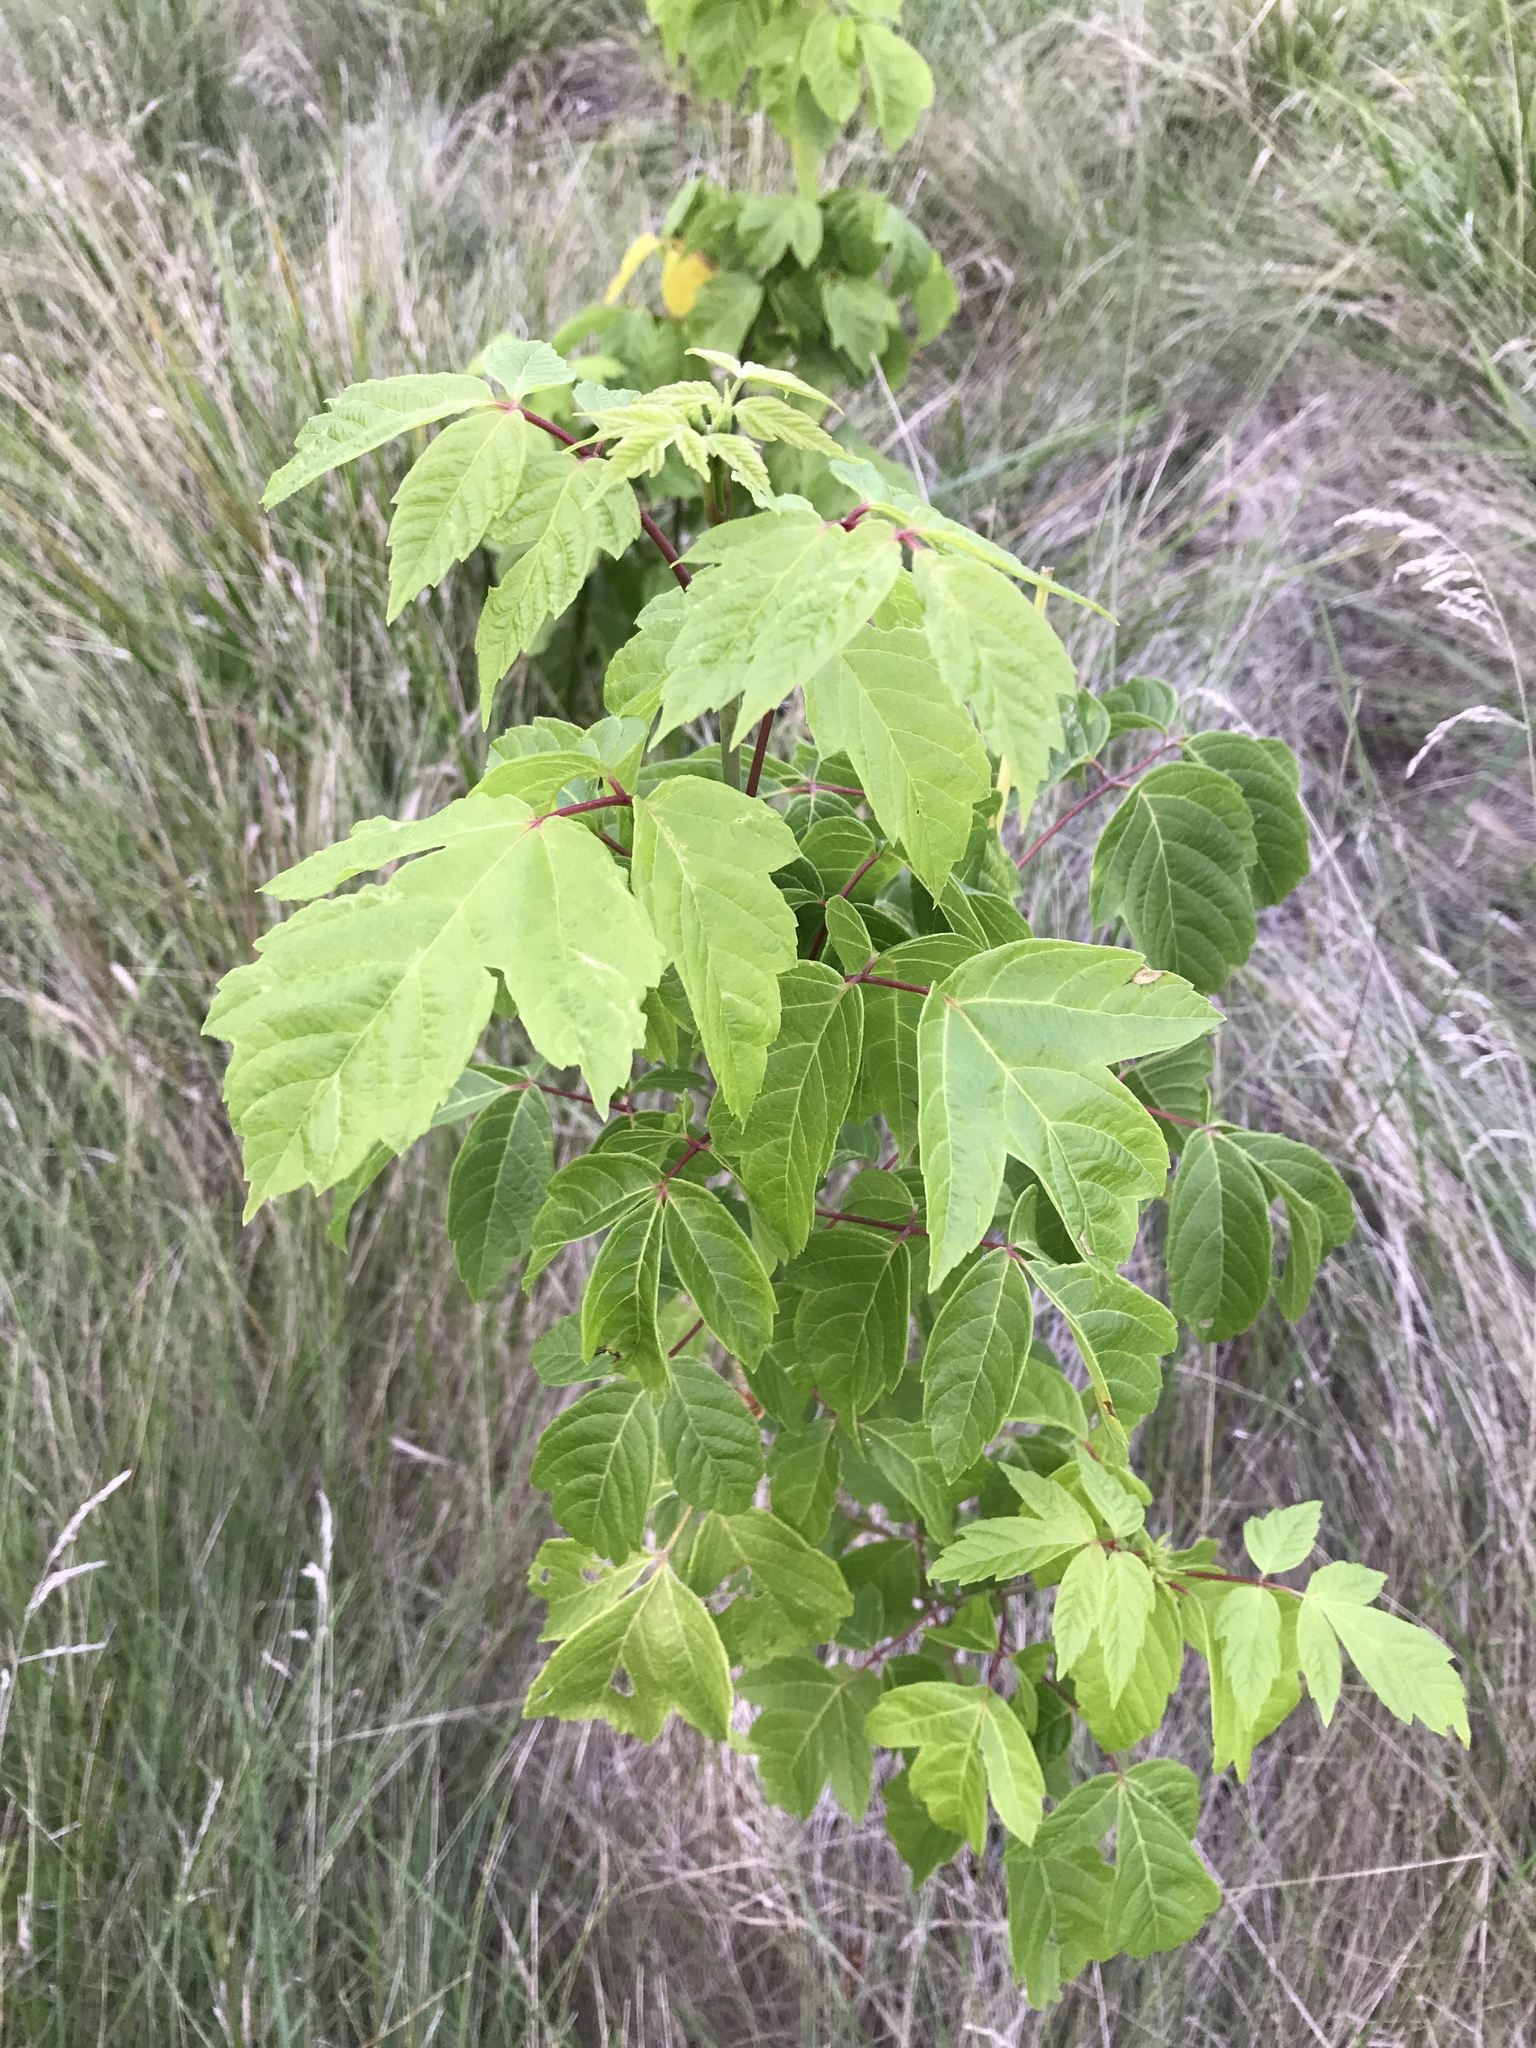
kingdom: Plantae
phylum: Tracheophyta
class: Magnoliopsida
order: Sapindales
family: Sapindaceae
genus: Acer
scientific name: Acer negundo
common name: Ashleaf maple
